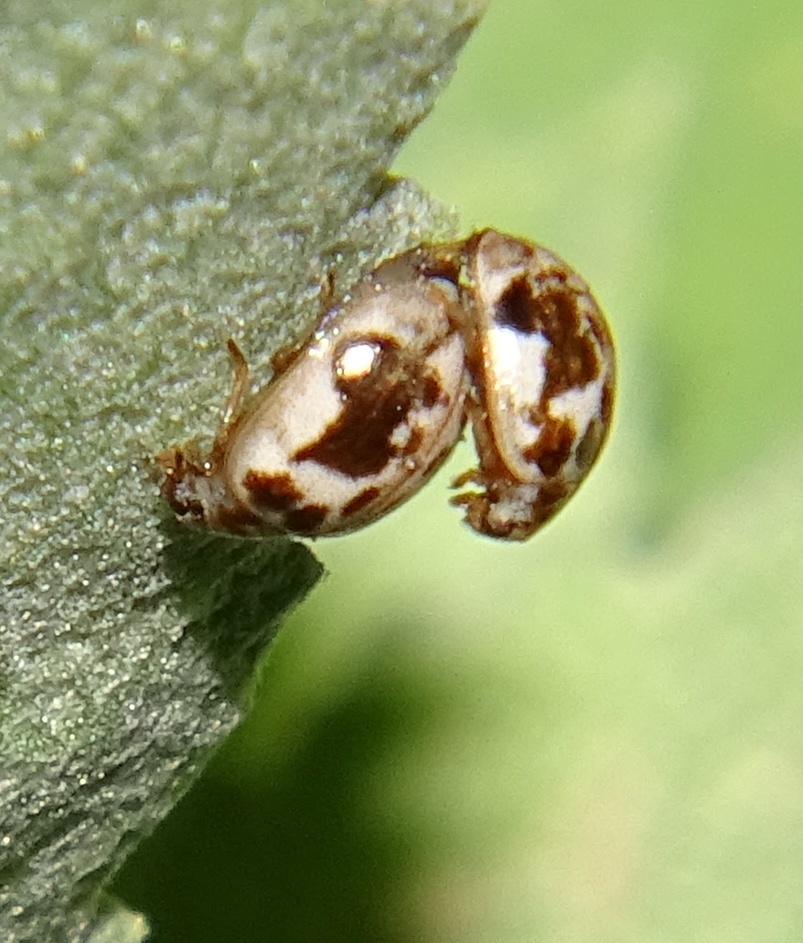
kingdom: Animalia
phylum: Arthropoda
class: Insecta
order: Coleoptera
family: Coccinellidae
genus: Psyllobora
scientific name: Psyllobora renifer
